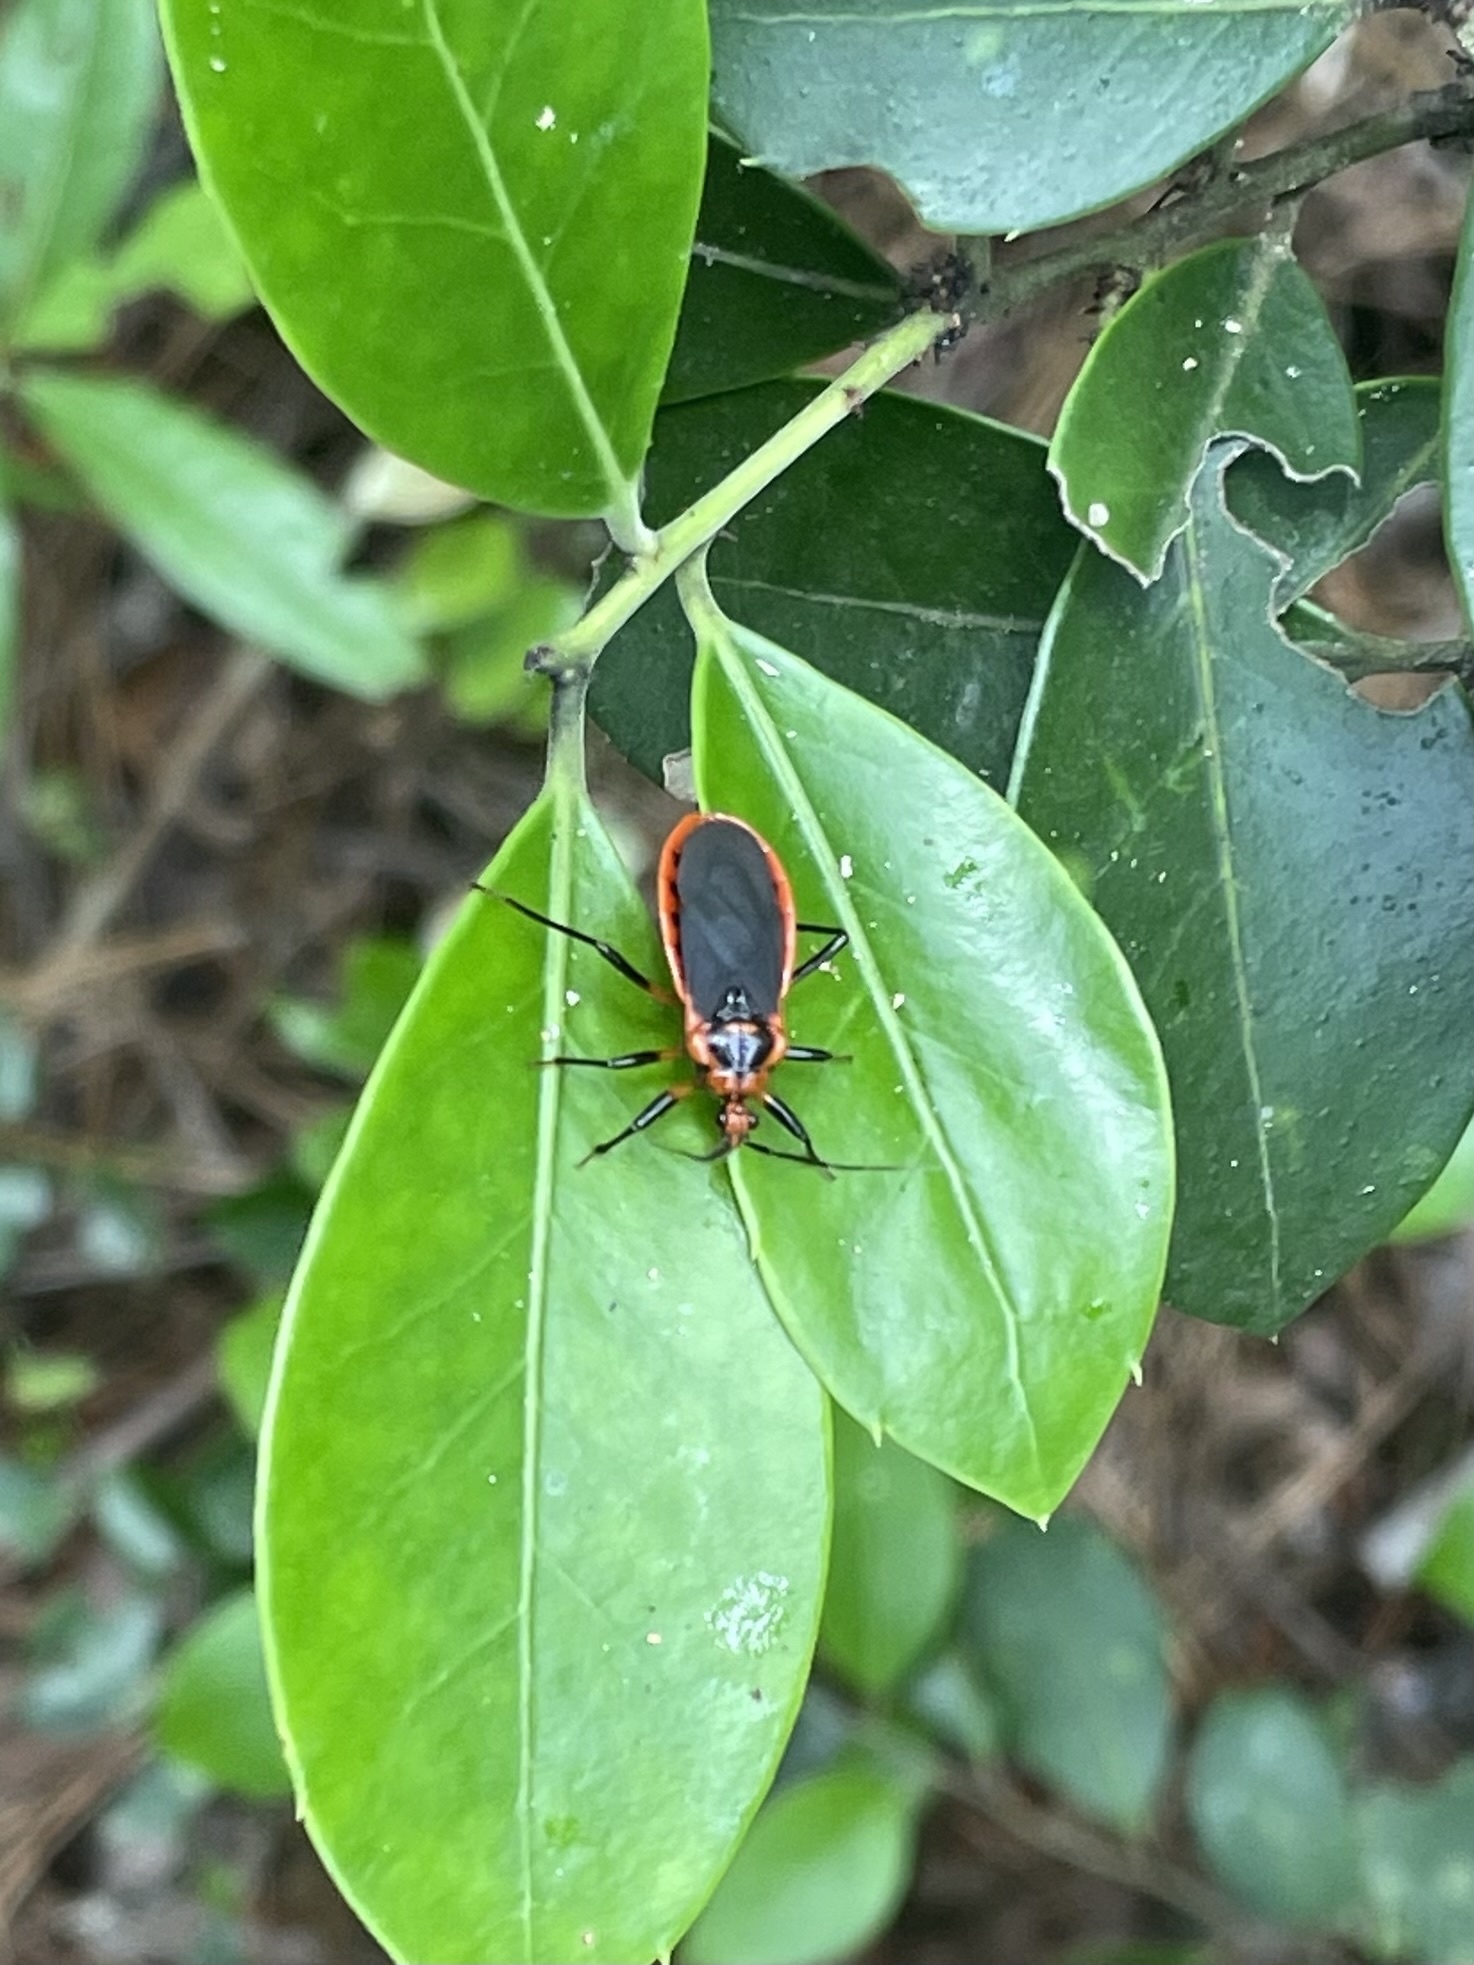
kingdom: Animalia
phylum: Arthropoda
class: Insecta
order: Hemiptera
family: Reduviidae
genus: Rhiginia
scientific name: Rhiginia cruciata
